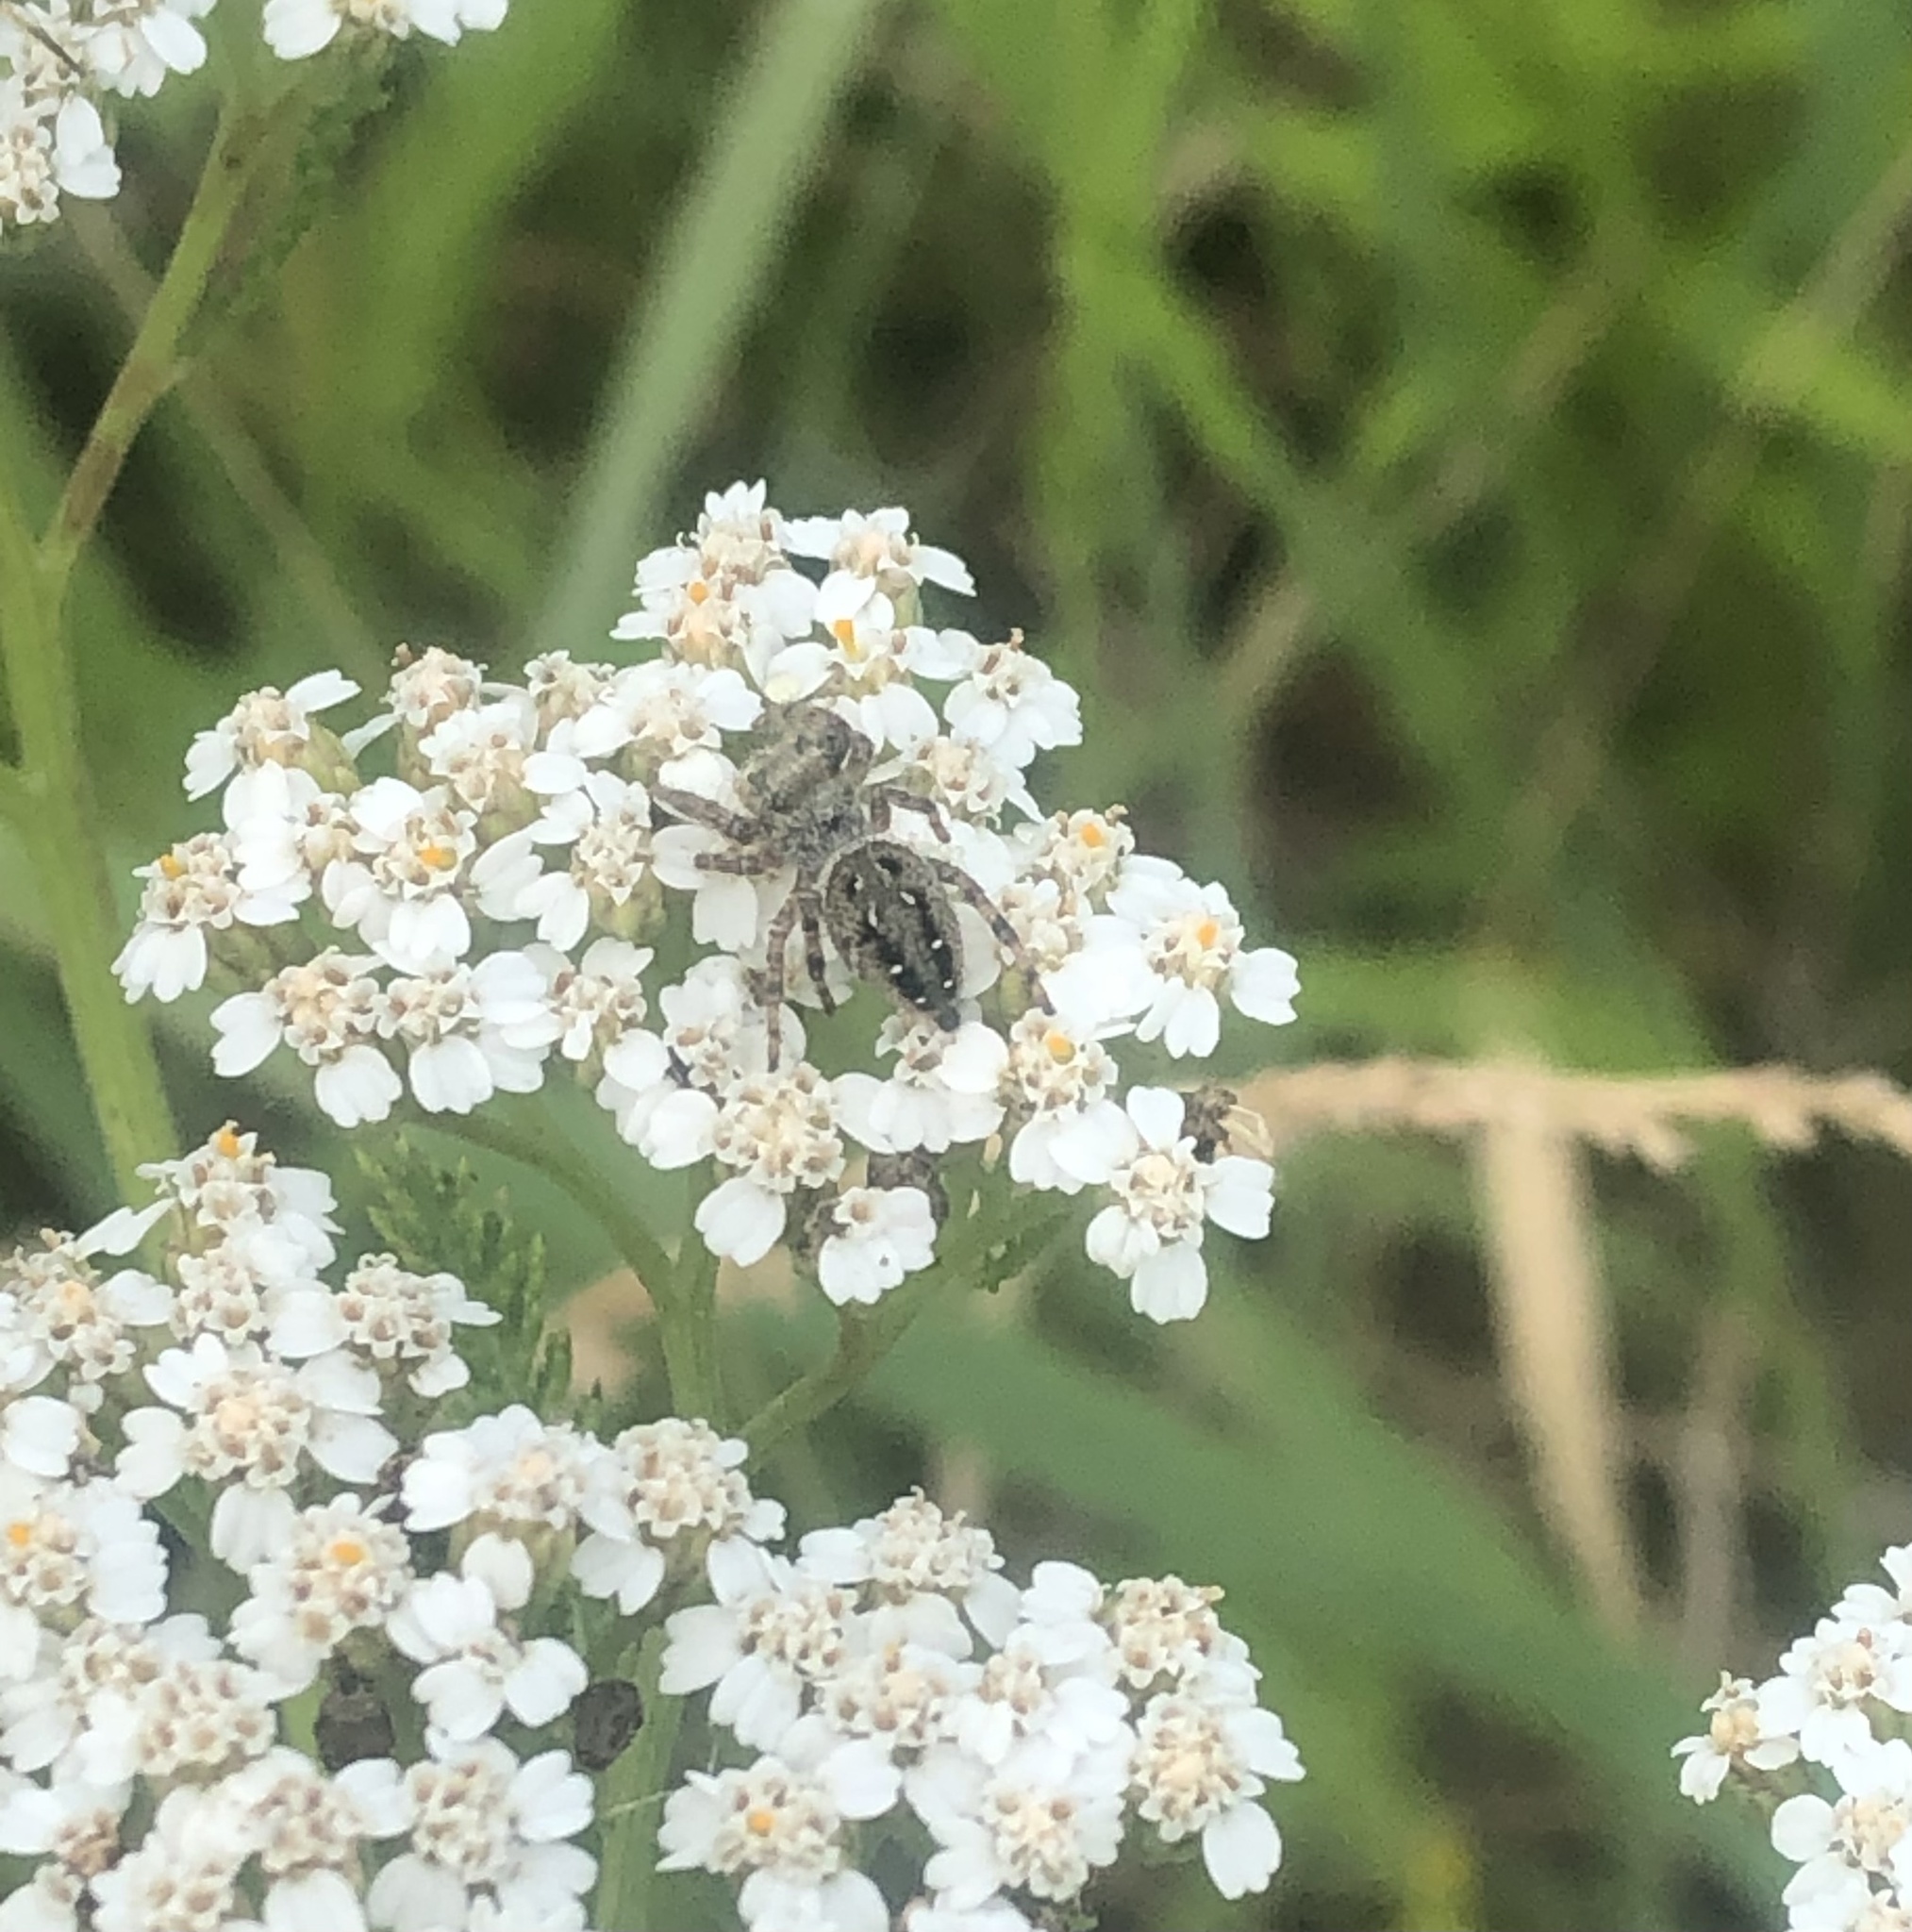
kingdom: Animalia
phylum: Arthropoda
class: Arachnida
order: Araneae
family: Salticidae
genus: Phidippus
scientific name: Phidippus clarus
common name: Brilliant jumping spider
